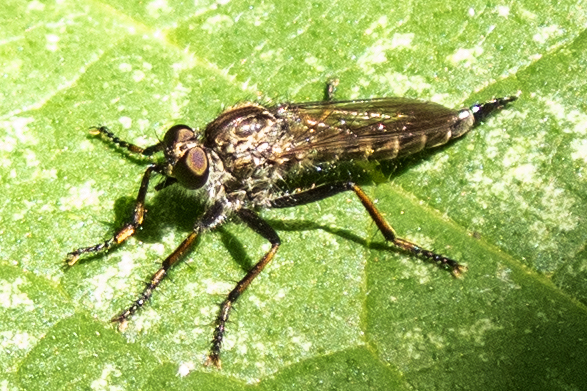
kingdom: Animalia
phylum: Arthropoda
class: Insecta
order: Diptera
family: Asilidae
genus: Machimus
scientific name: Machimus sadyates
